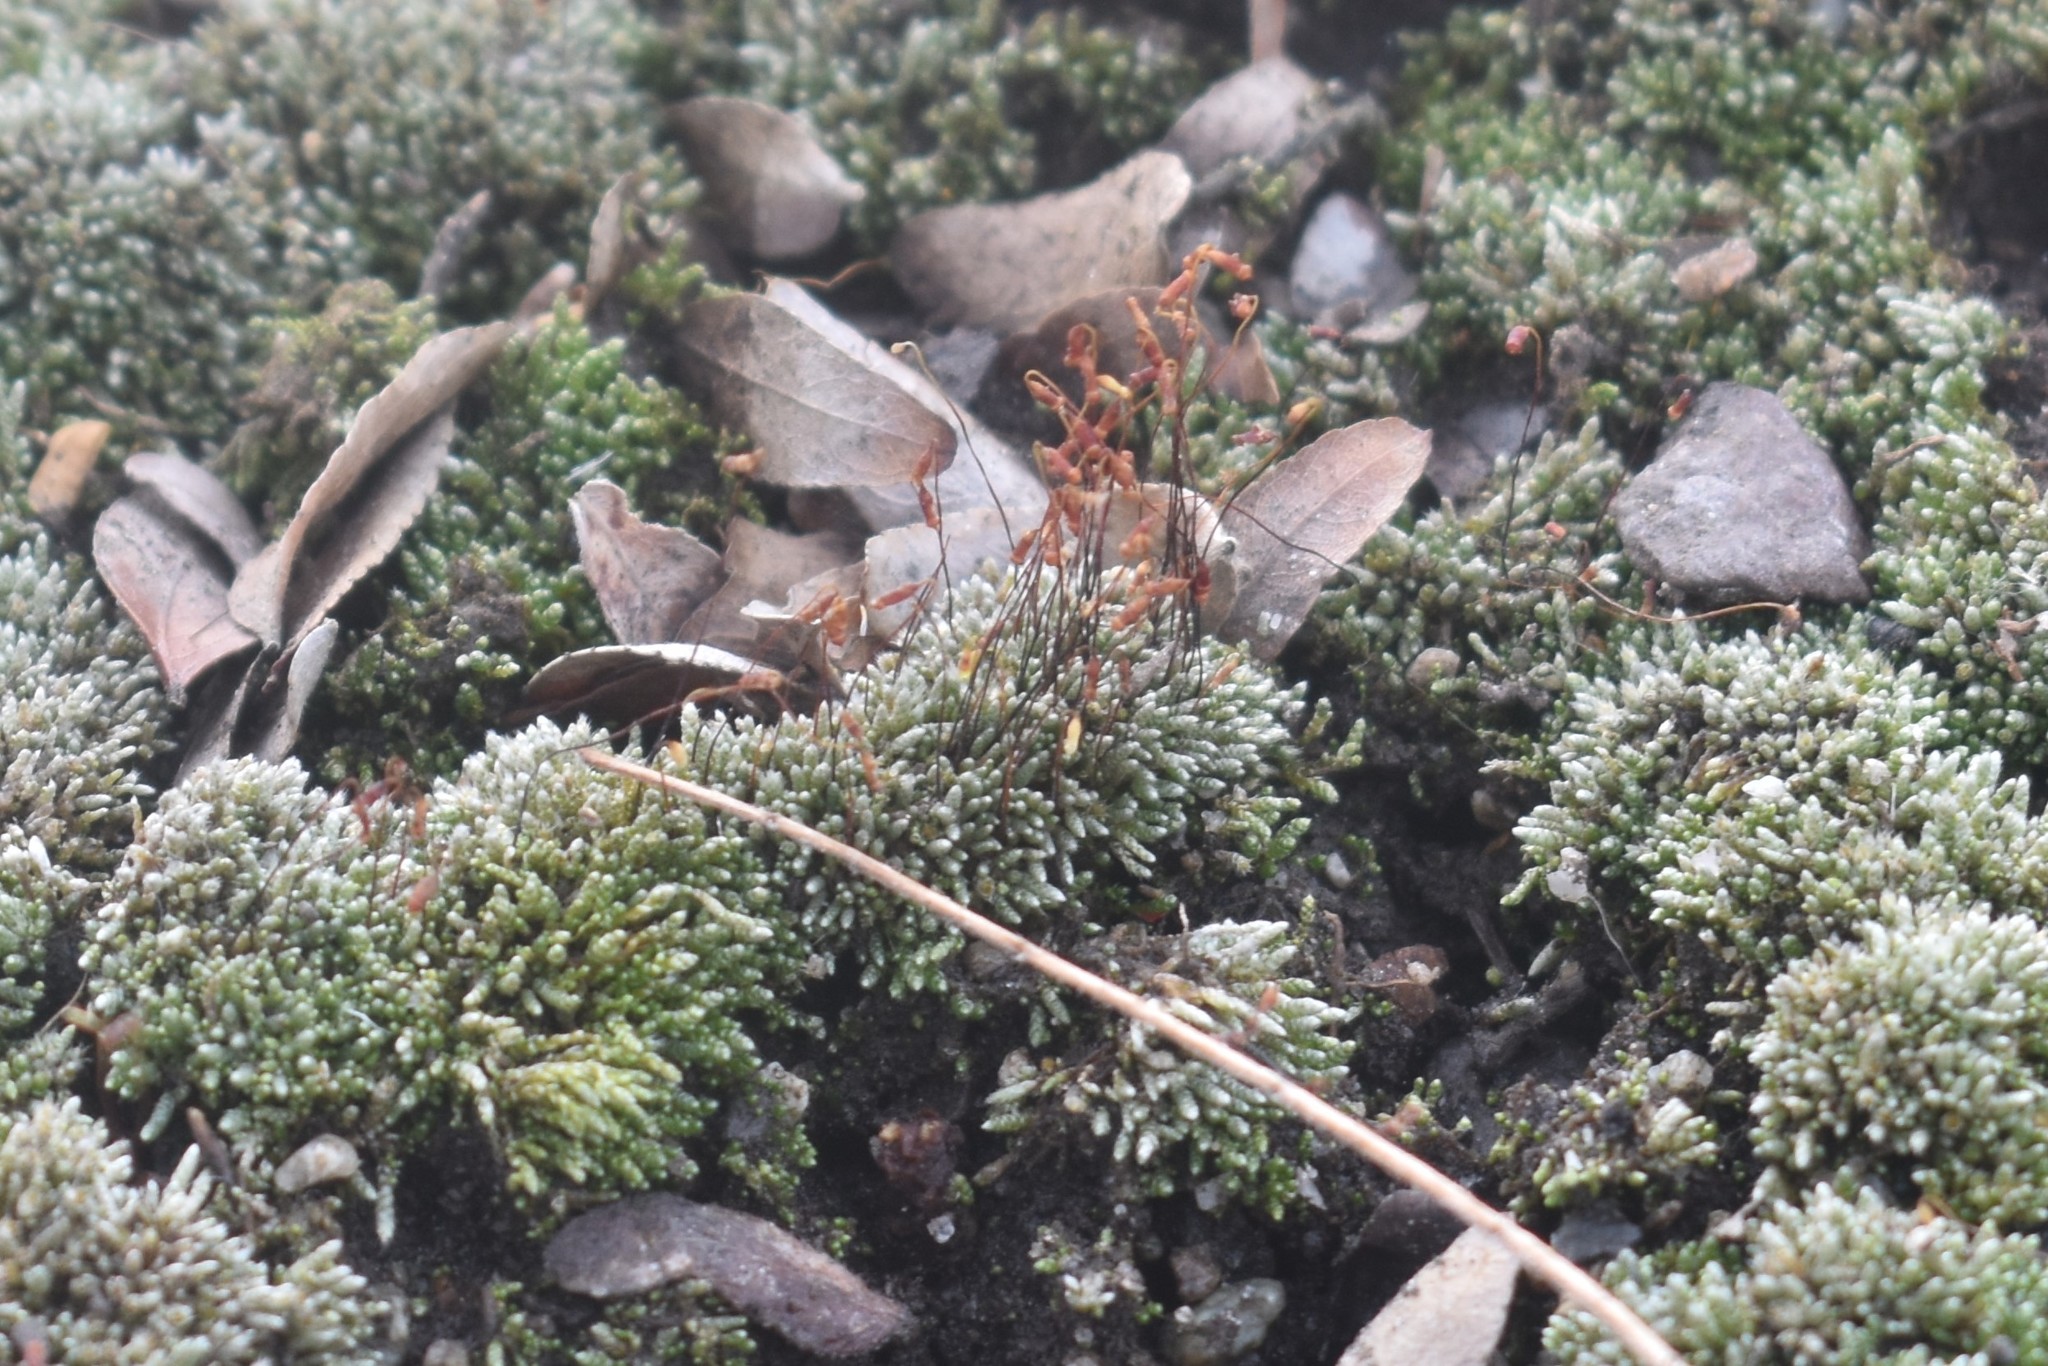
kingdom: Plantae
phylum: Bryophyta
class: Bryopsida
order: Bryales
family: Bryaceae
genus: Bryum
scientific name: Bryum argenteum
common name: Silver-moss
